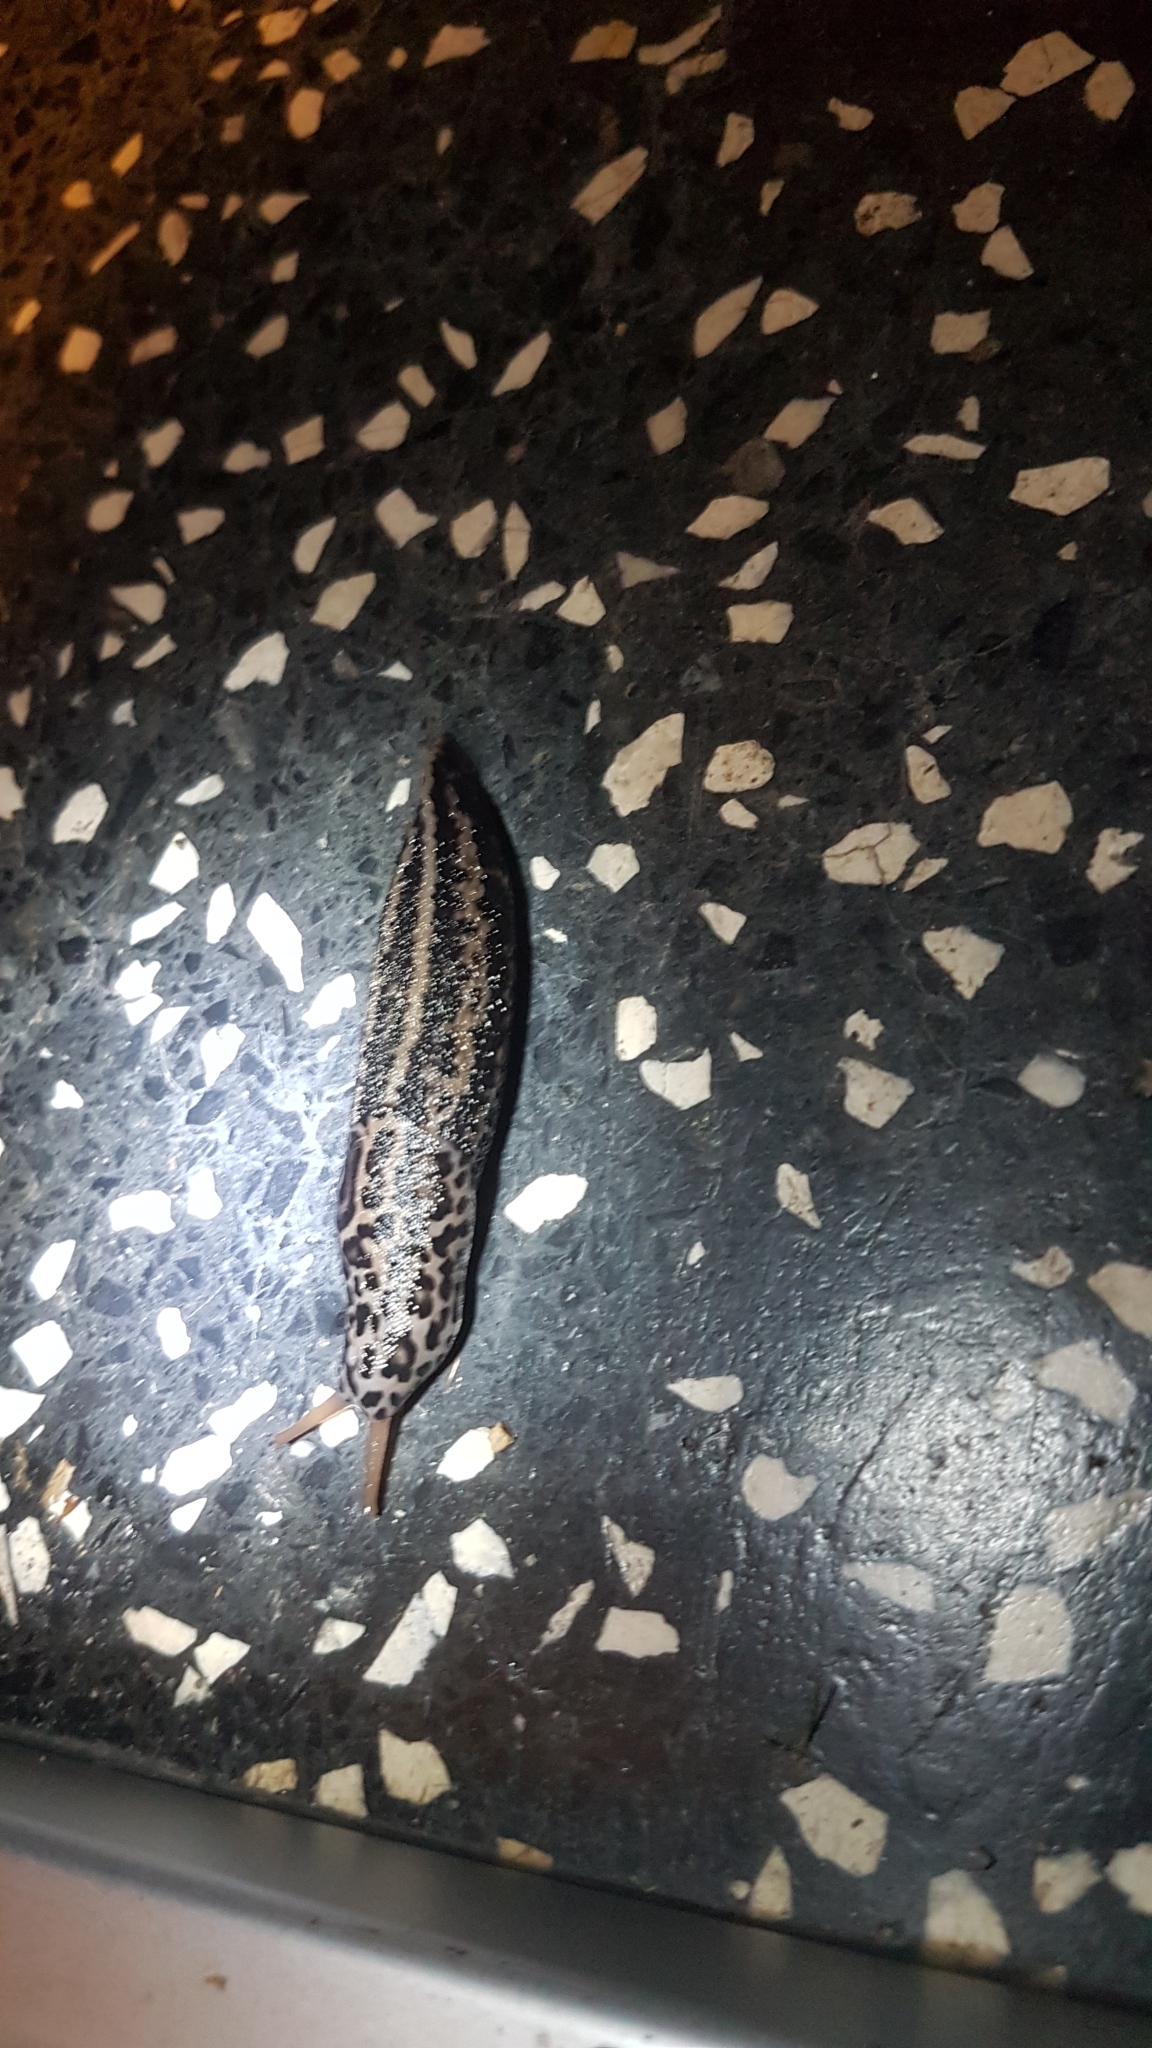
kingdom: Animalia
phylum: Mollusca
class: Gastropoda
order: Stylommatophora
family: Limacidae
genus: Limax
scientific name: Limax maximus
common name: Great grey slug
